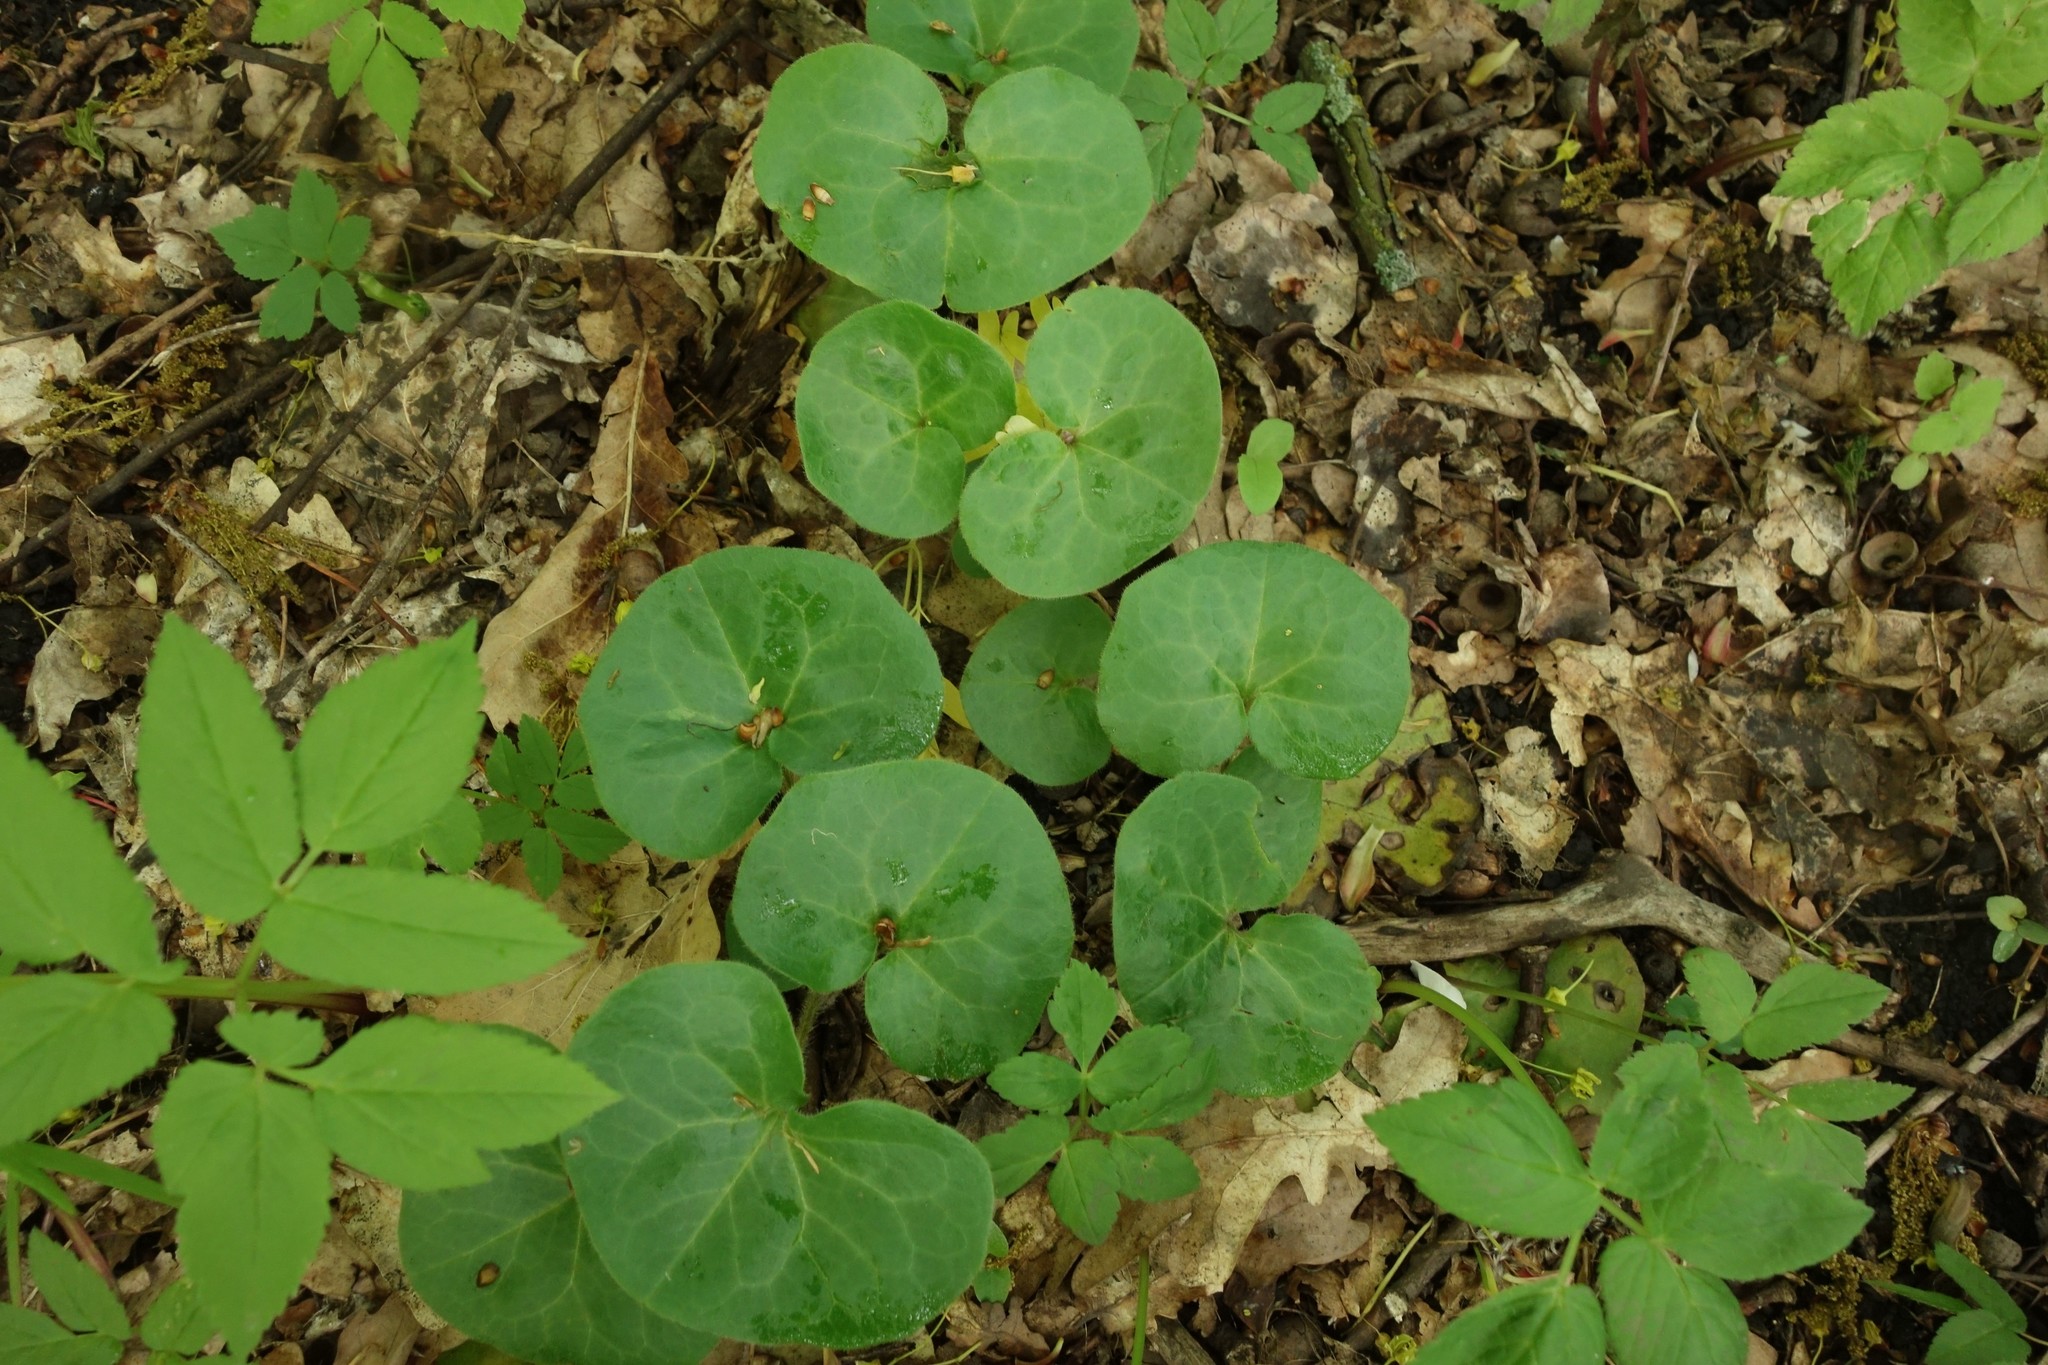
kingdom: Plantae
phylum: Tracheophyta
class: Magnoliopsida
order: Piperales
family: Aristolochiaceae
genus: Asarum
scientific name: Asarum europaeum
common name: Asarabacca
